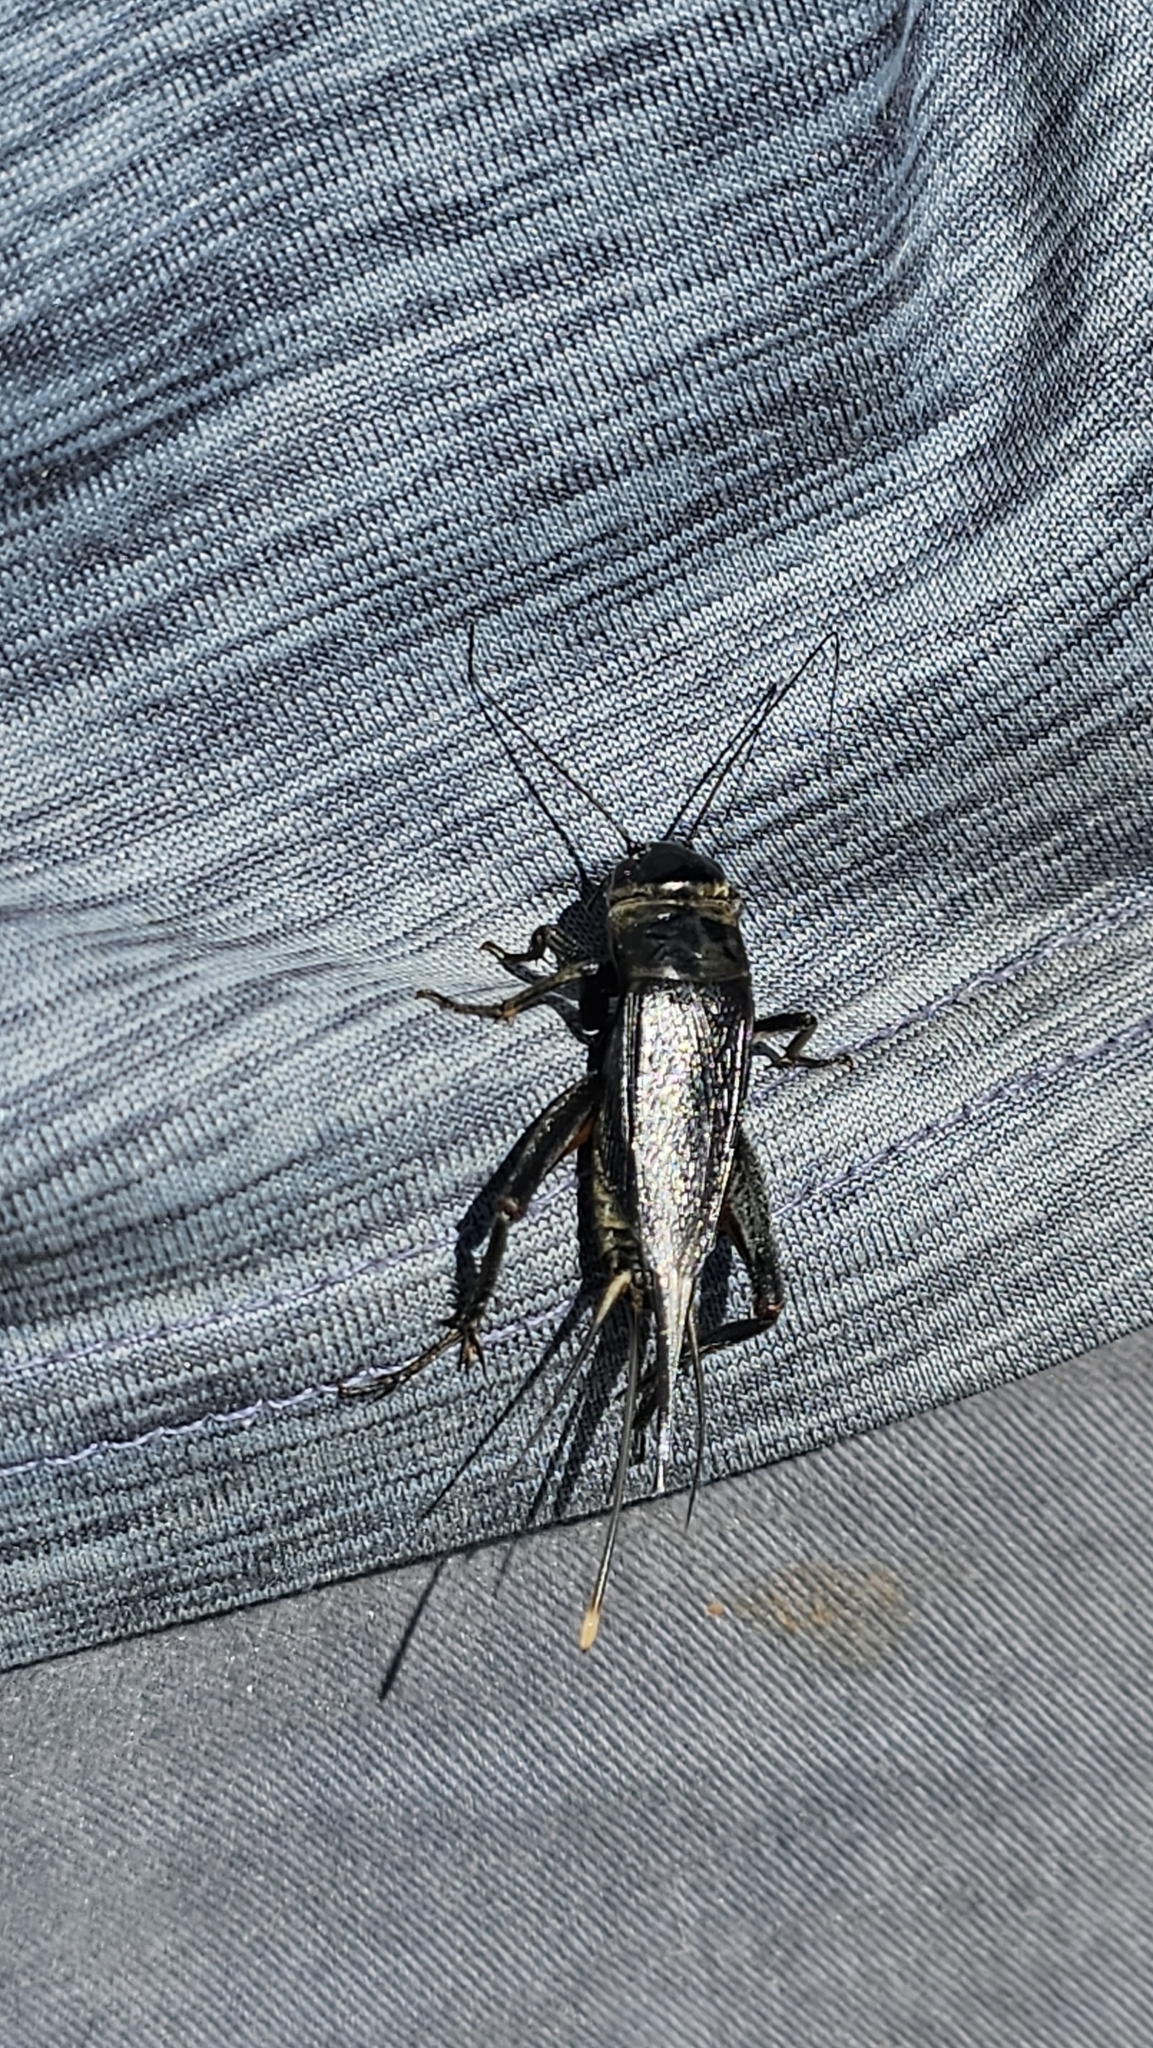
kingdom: Animalia
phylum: Arthropoda
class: Insecta
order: Orthoptera
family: Gryllidae
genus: Teleogryllus
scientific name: Teleogryllus commodus
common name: Black field cricket
